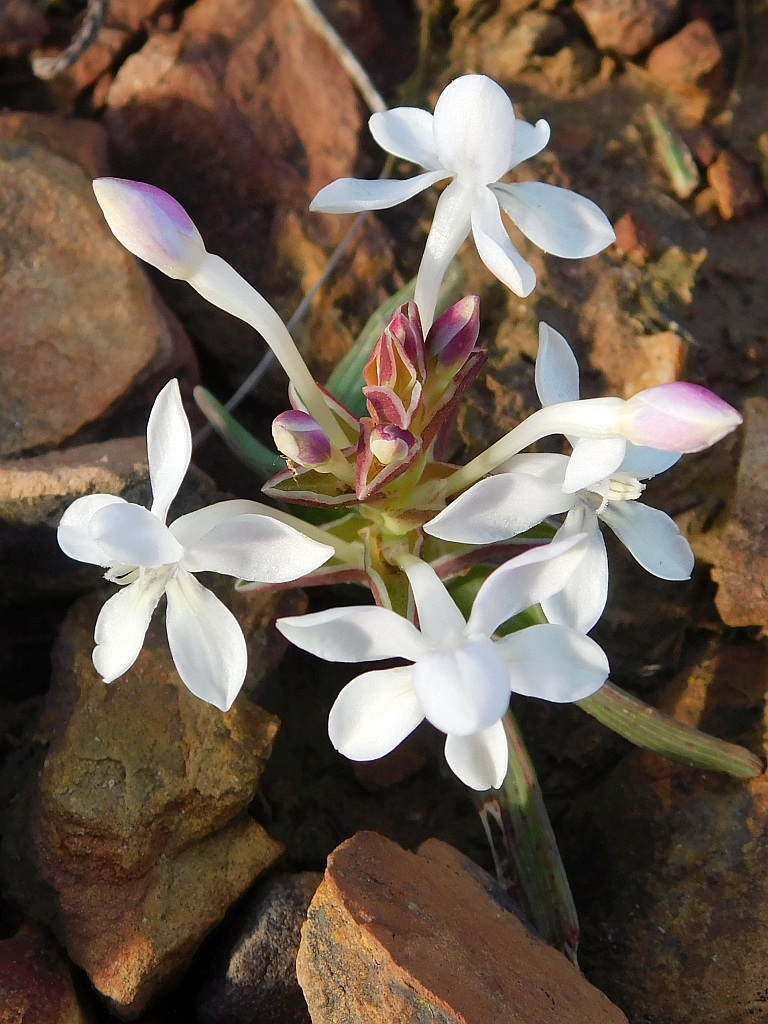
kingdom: Plantae
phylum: Tracheophyta
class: Liliopsida
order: Asparagales
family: Iridaceae
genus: Lapeirousia
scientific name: Lapeirousia pyramidalis
